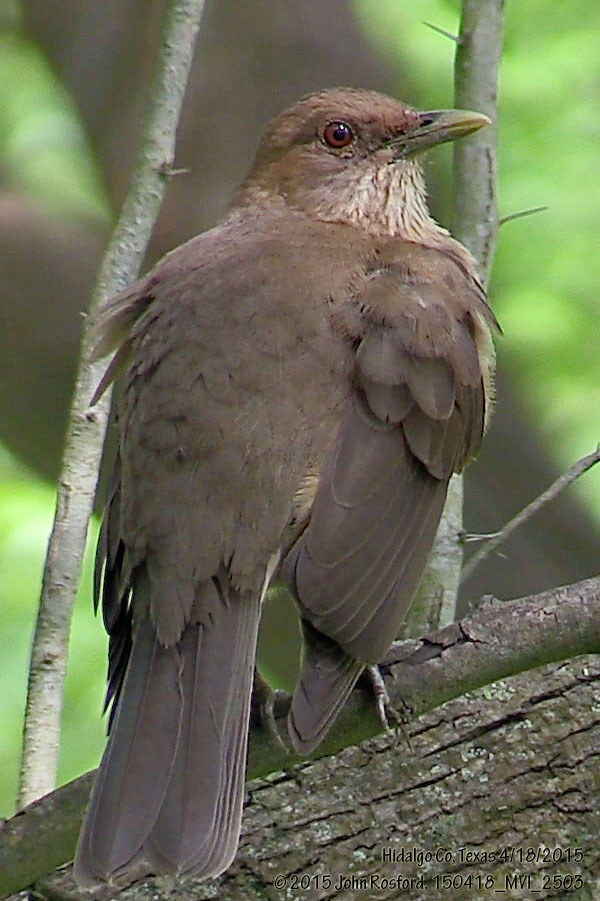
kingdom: Animalia
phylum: Chordata
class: Aves
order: Passeriformes
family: Turdidae
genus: Turdus
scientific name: Turdus grayi
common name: Clay-colored thrush
